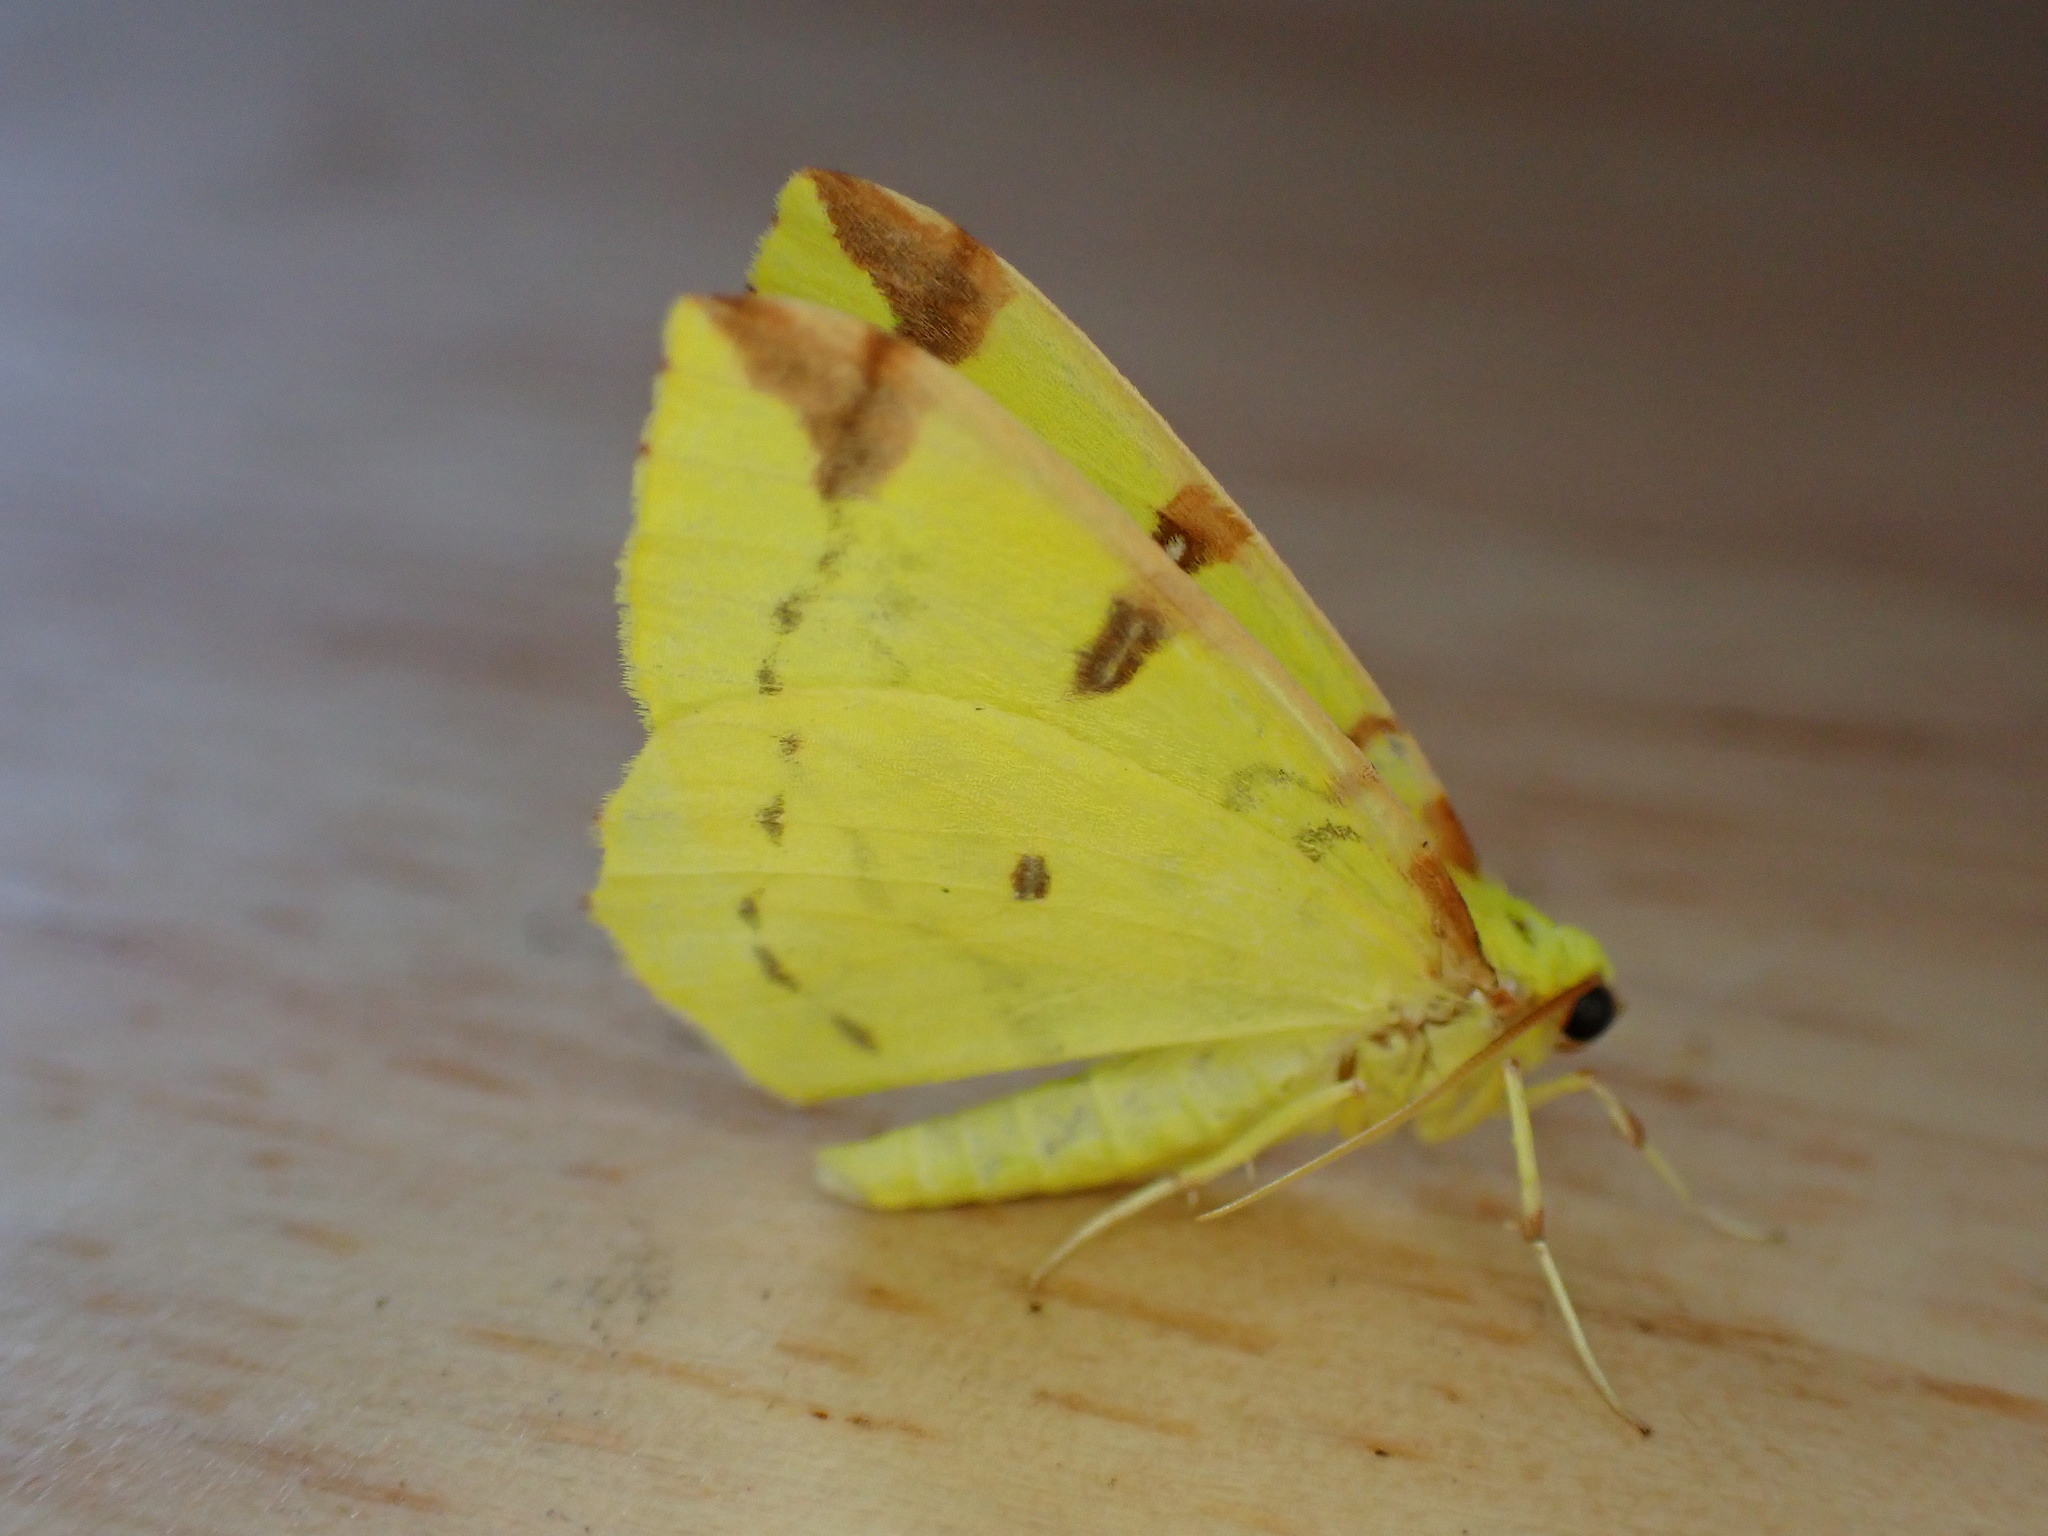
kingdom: Animalia
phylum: Arthropoda
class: Insecta
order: Lepidoptera
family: Geometridae
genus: Opisthograptis
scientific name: Opisthograptis luteolata
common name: Brimstone moth
